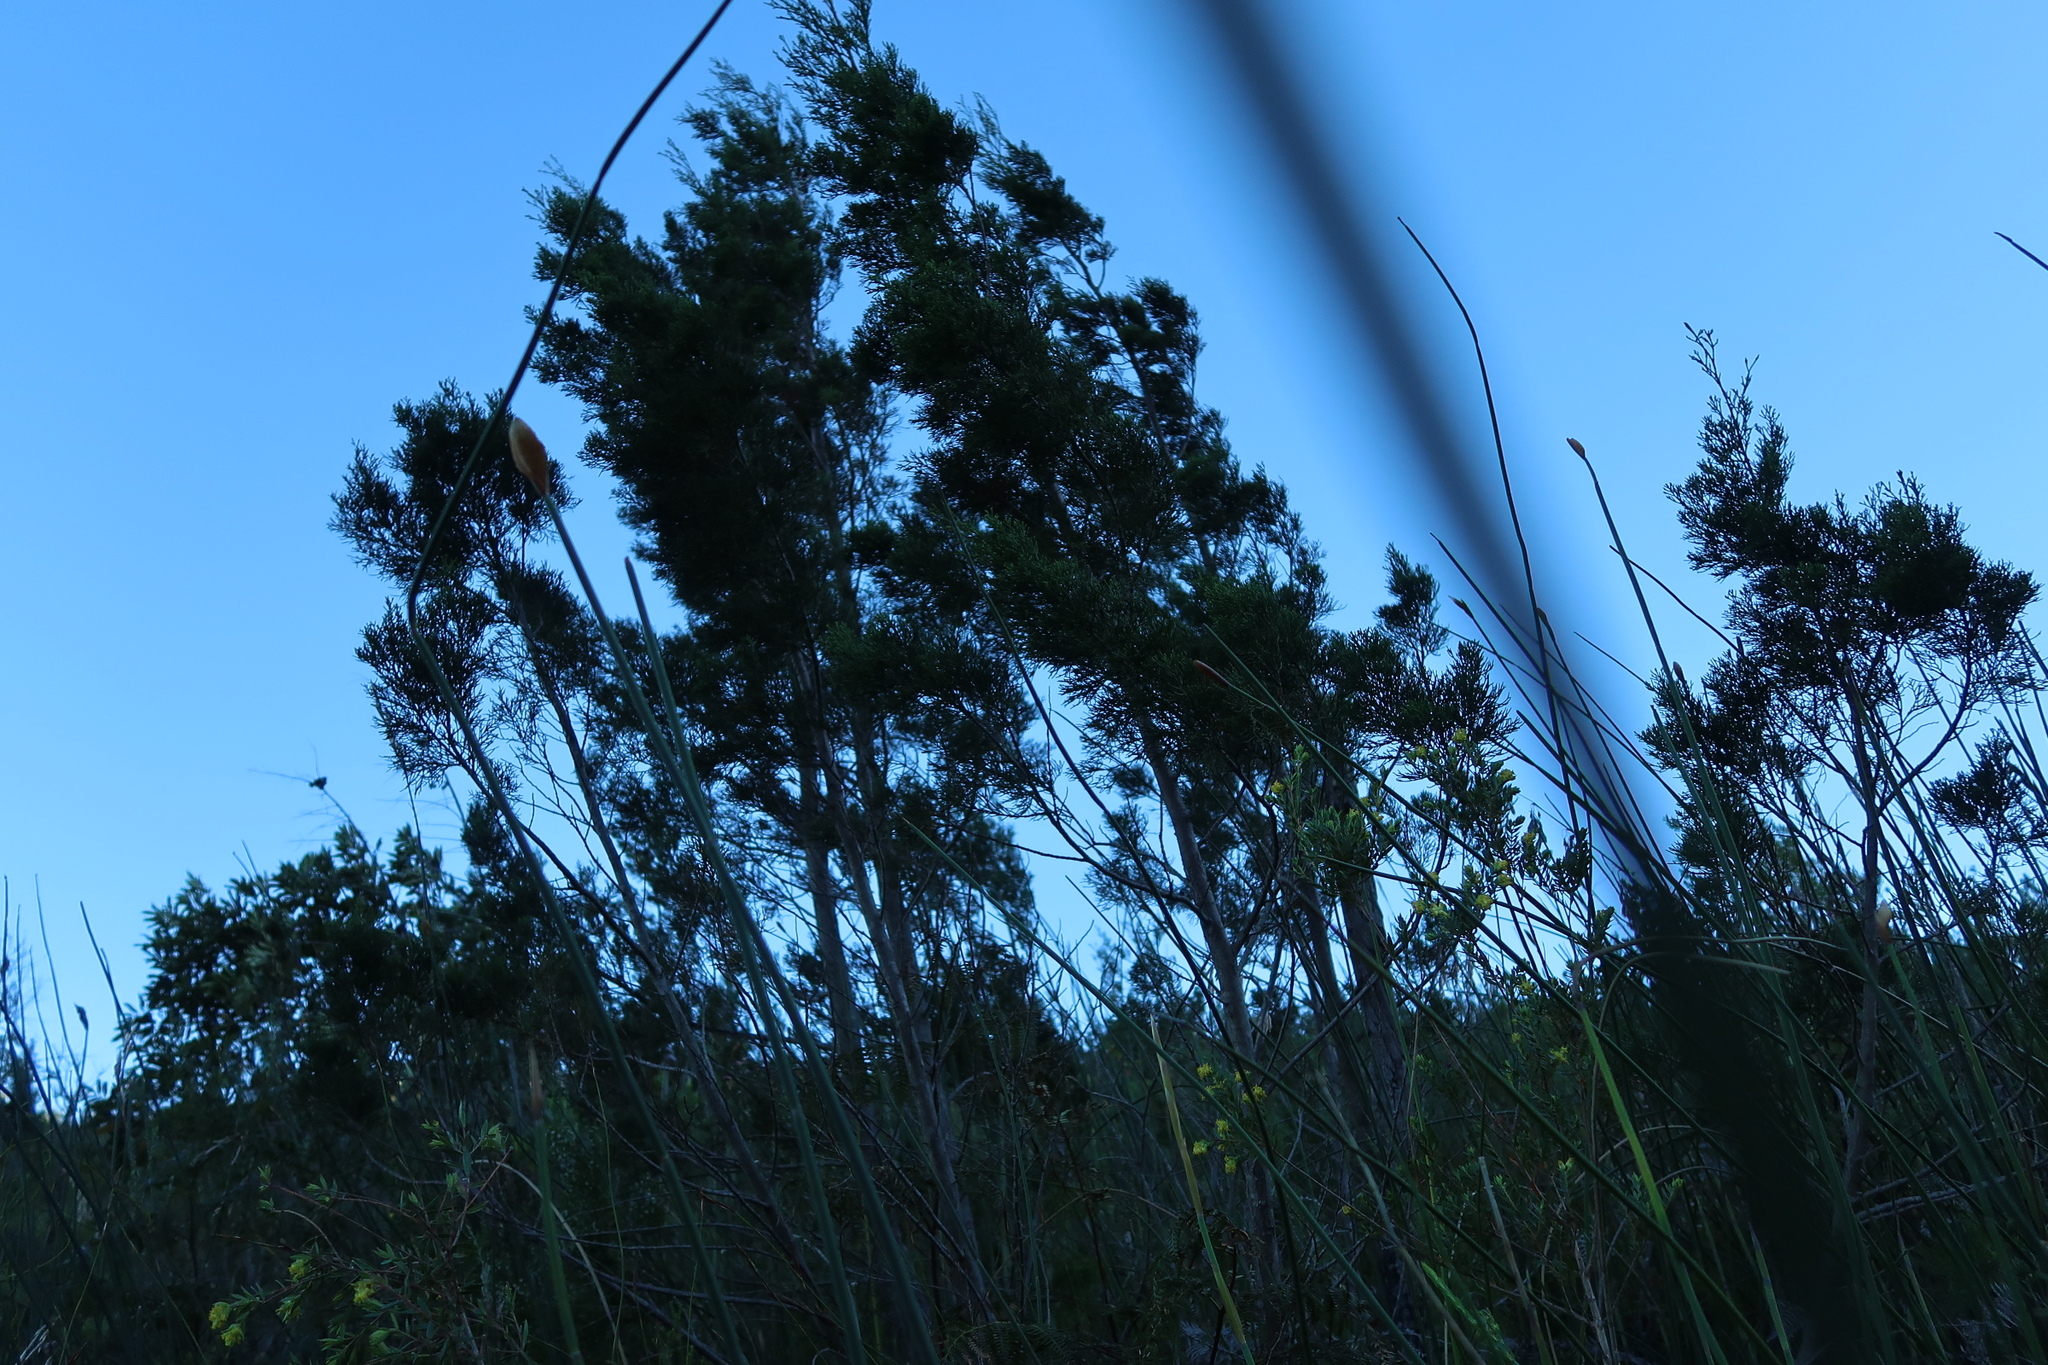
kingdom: Plantae
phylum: Tracheophyta
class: Pinopsida
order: Pinales
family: Cupressaceae
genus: Widdringtonia
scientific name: Widdringtonia nodiflora
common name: Cape cypress
